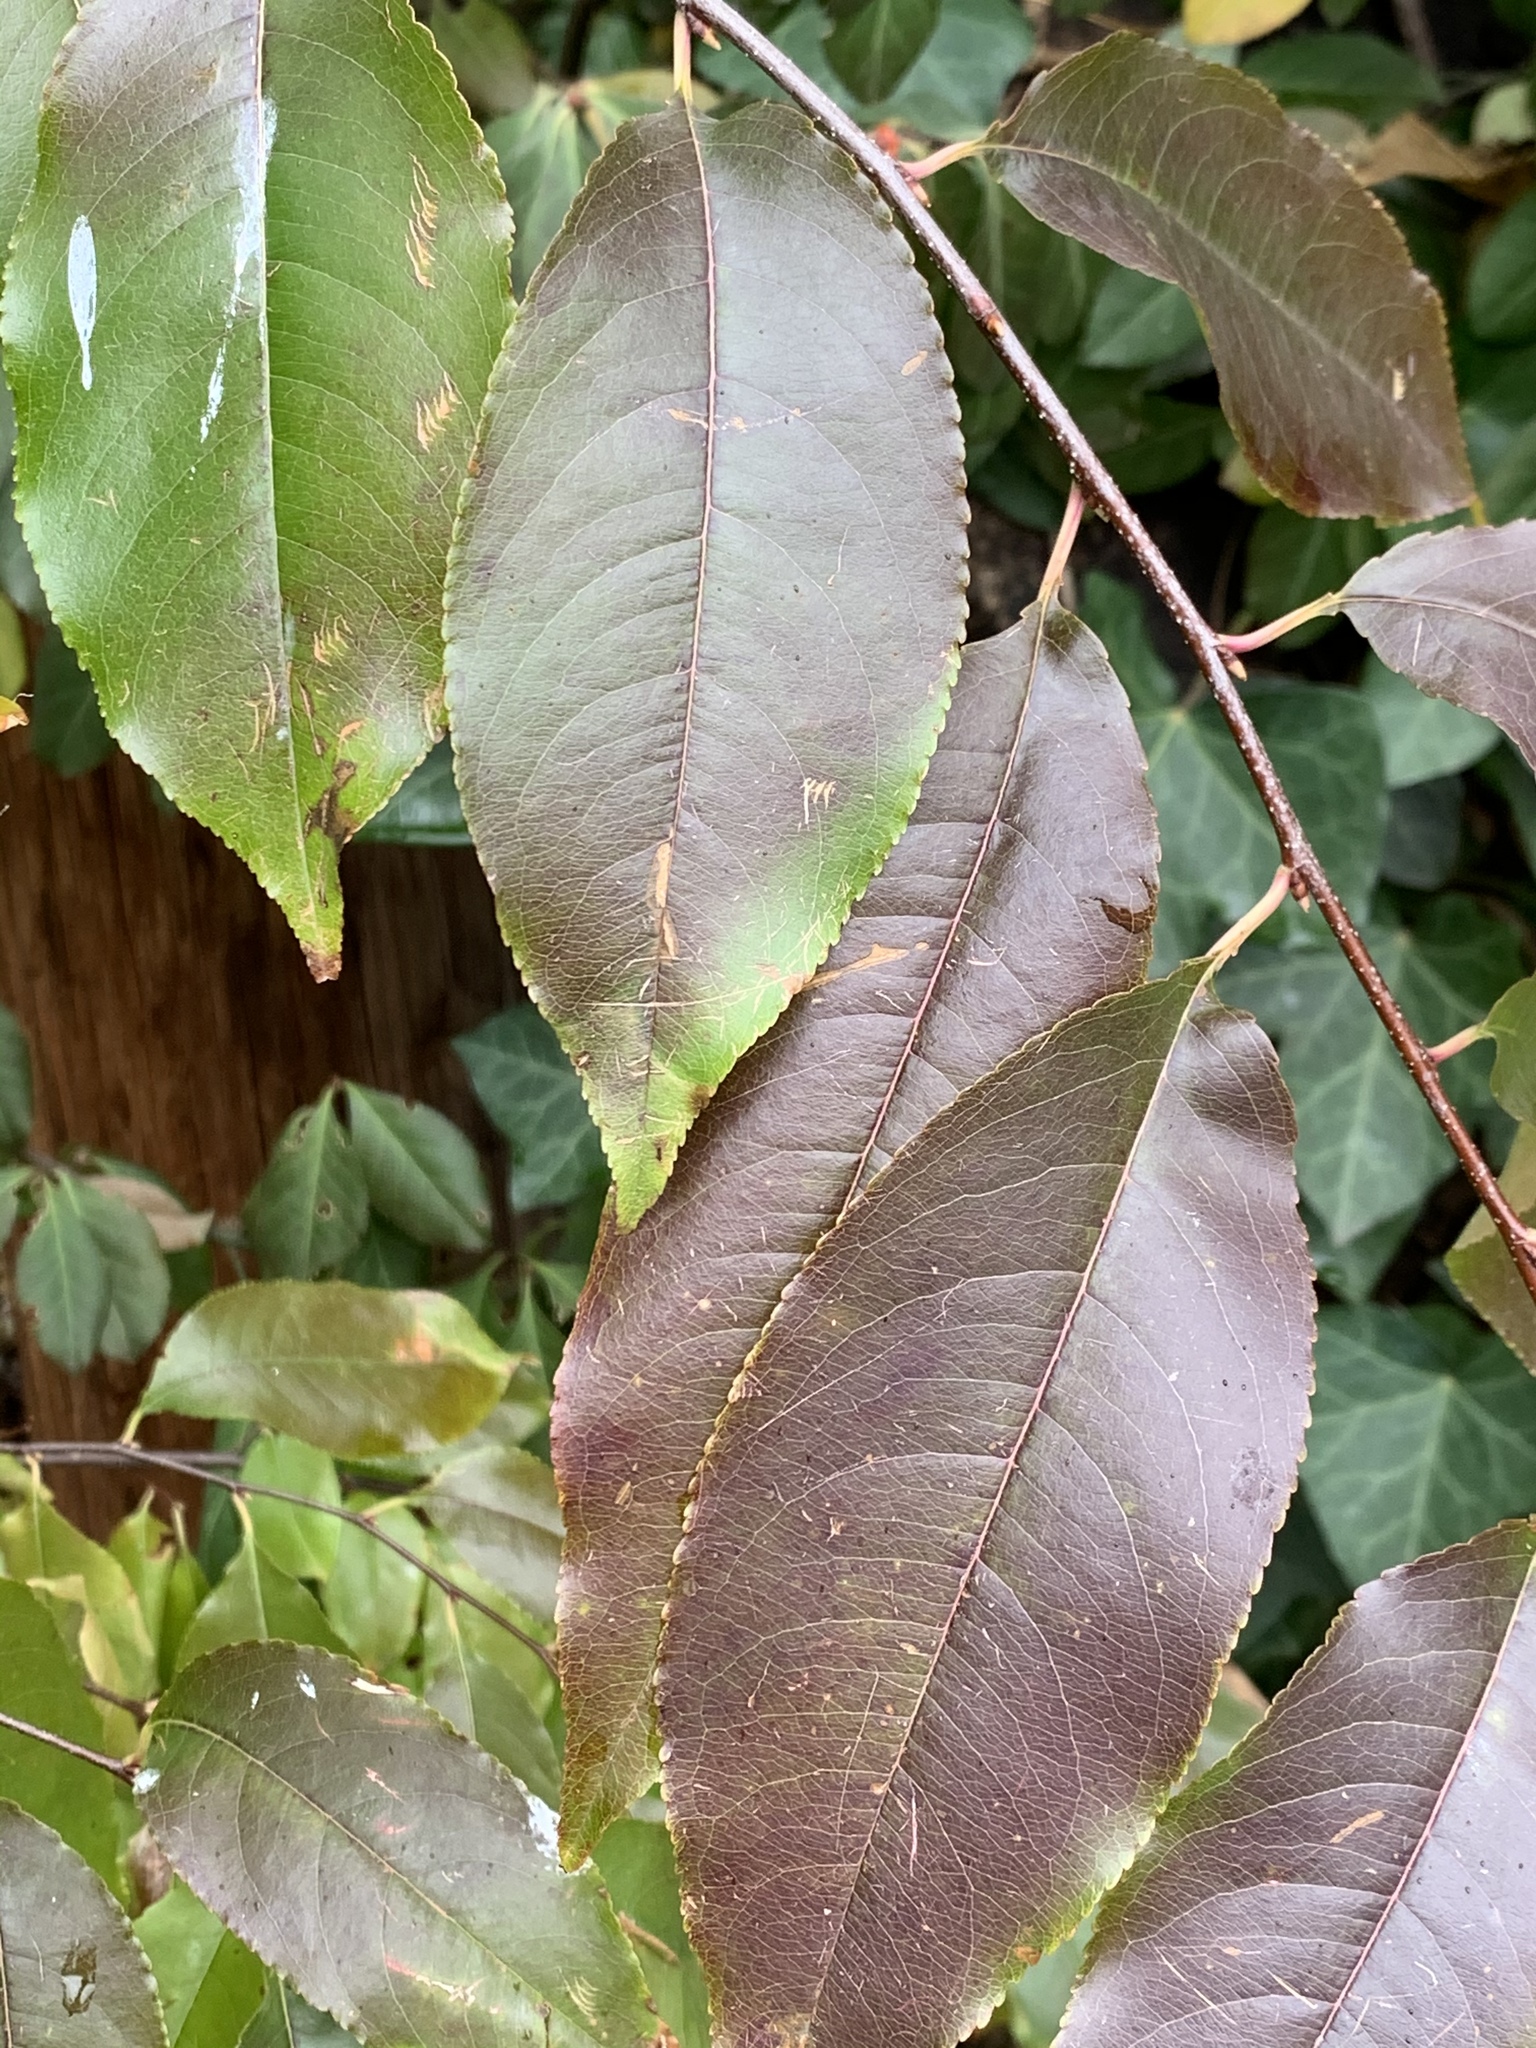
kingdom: Plantae
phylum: Tracheophyta
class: Magnoliopsida
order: Rosales
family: Rosaceae
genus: Prunus
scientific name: Prunus serotina
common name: Black cherry
